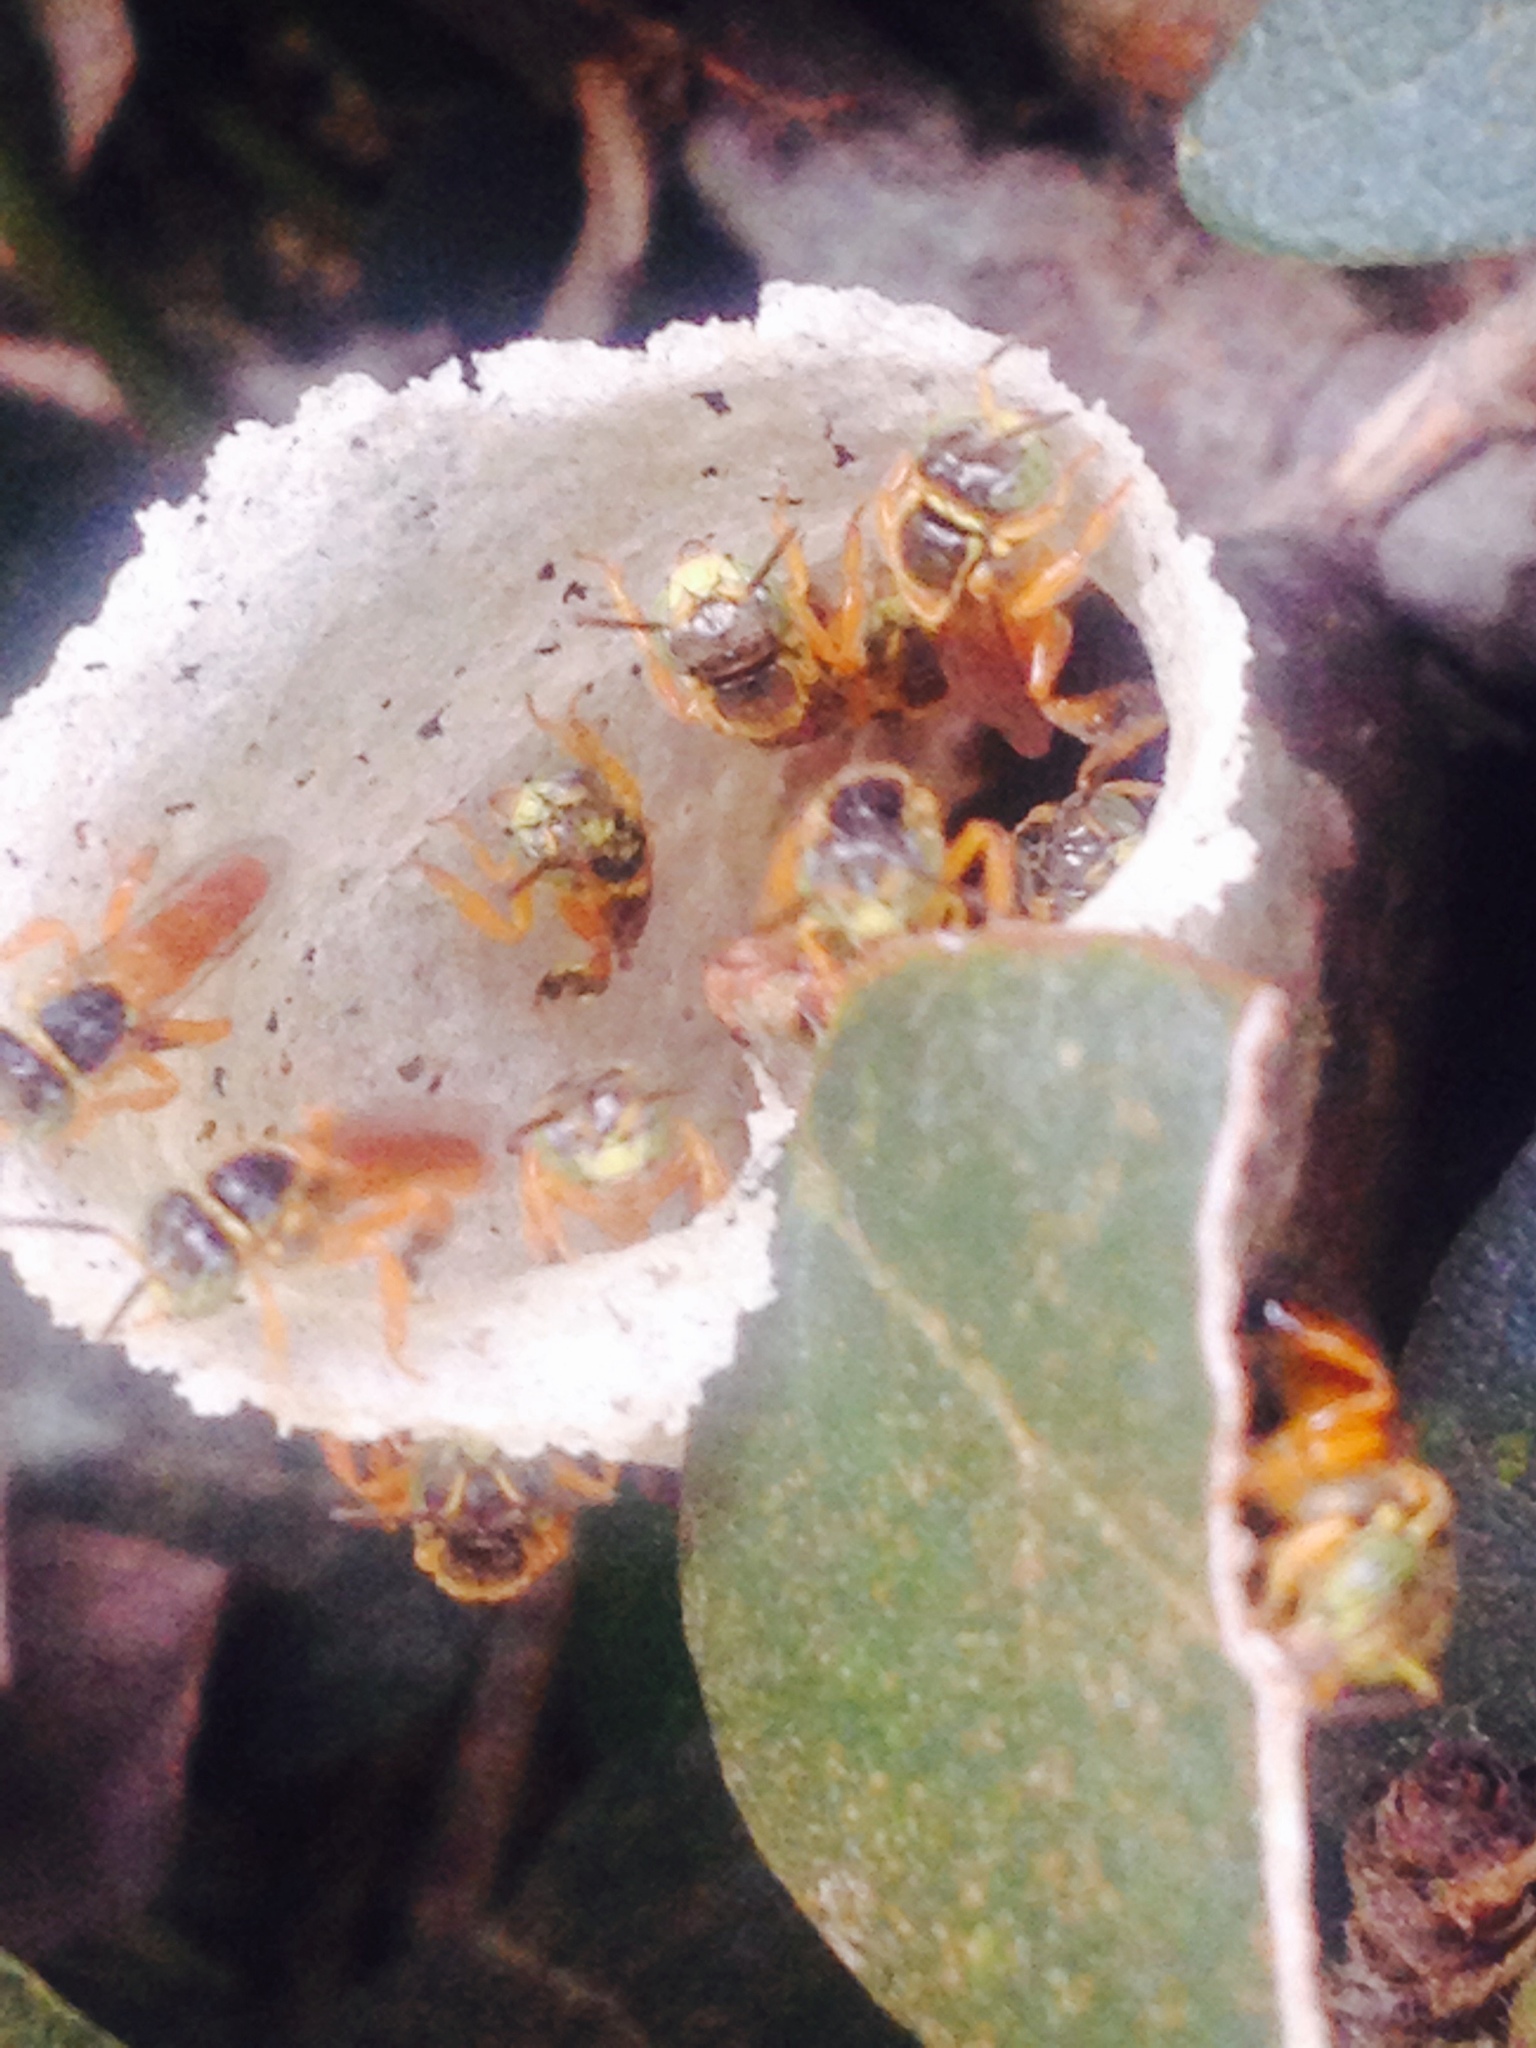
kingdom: Animalia
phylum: Arthropoda
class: Insecta
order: Hymenoptera
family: Apidae
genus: Tetragonisca
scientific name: Tetragonisca angustula
